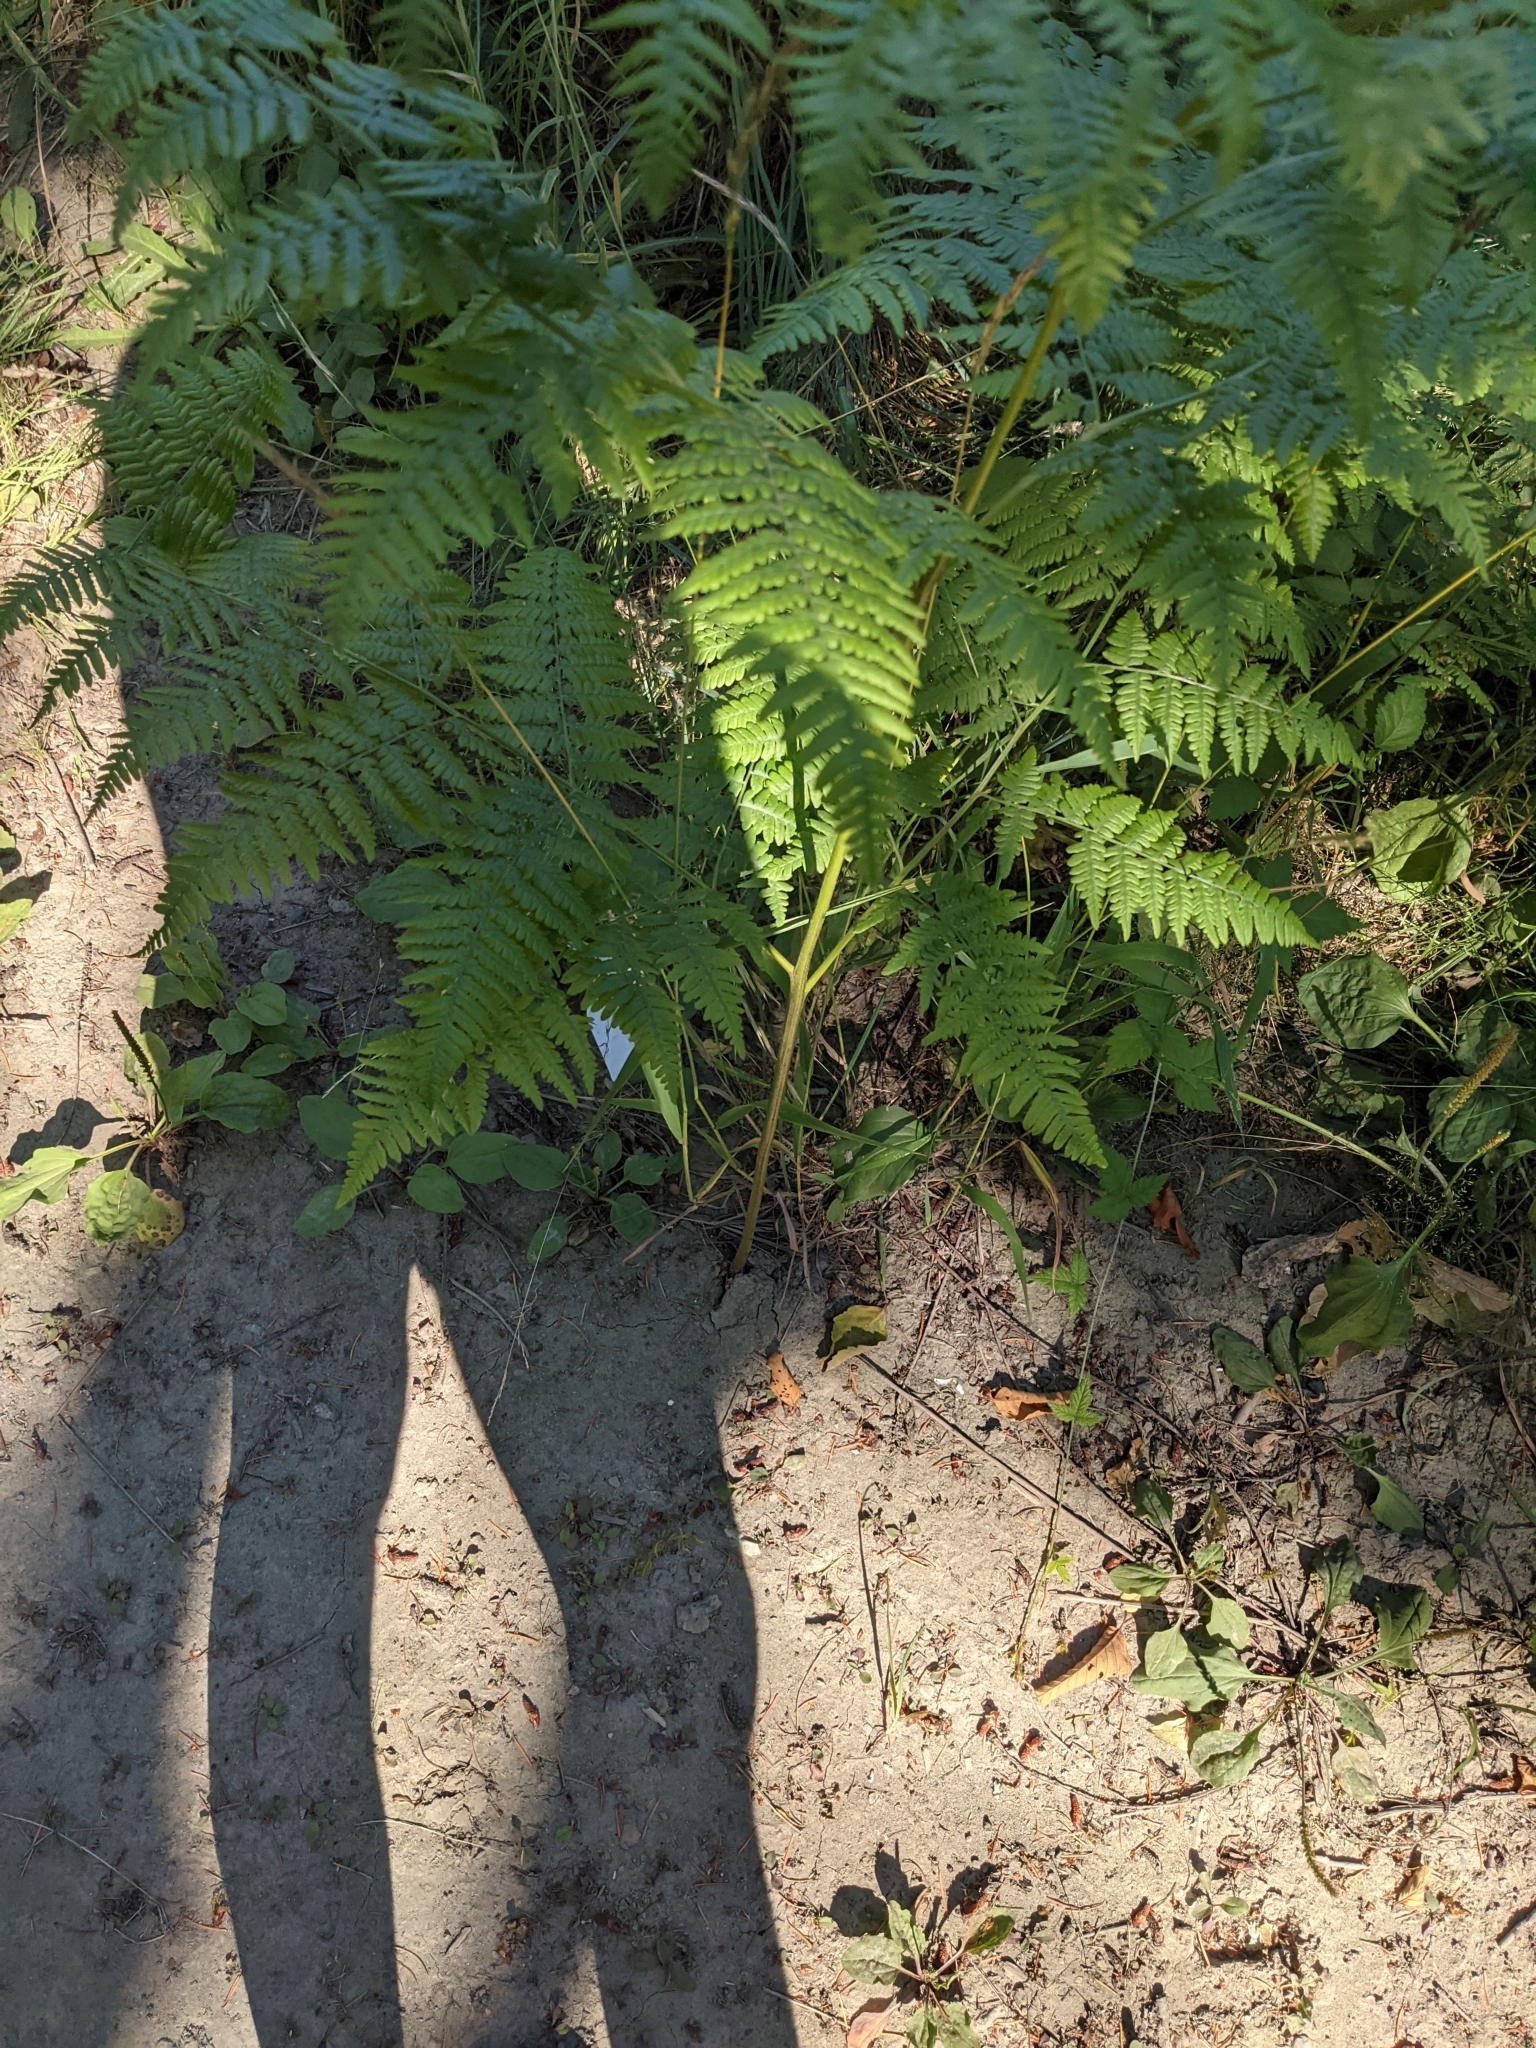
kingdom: Plantae
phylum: Tracheophyta
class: Polypodiopsida
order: Polypodiales
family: Dennstaedtiaceae
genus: Pteridium
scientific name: Pteridium aquilinum
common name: Bracken
